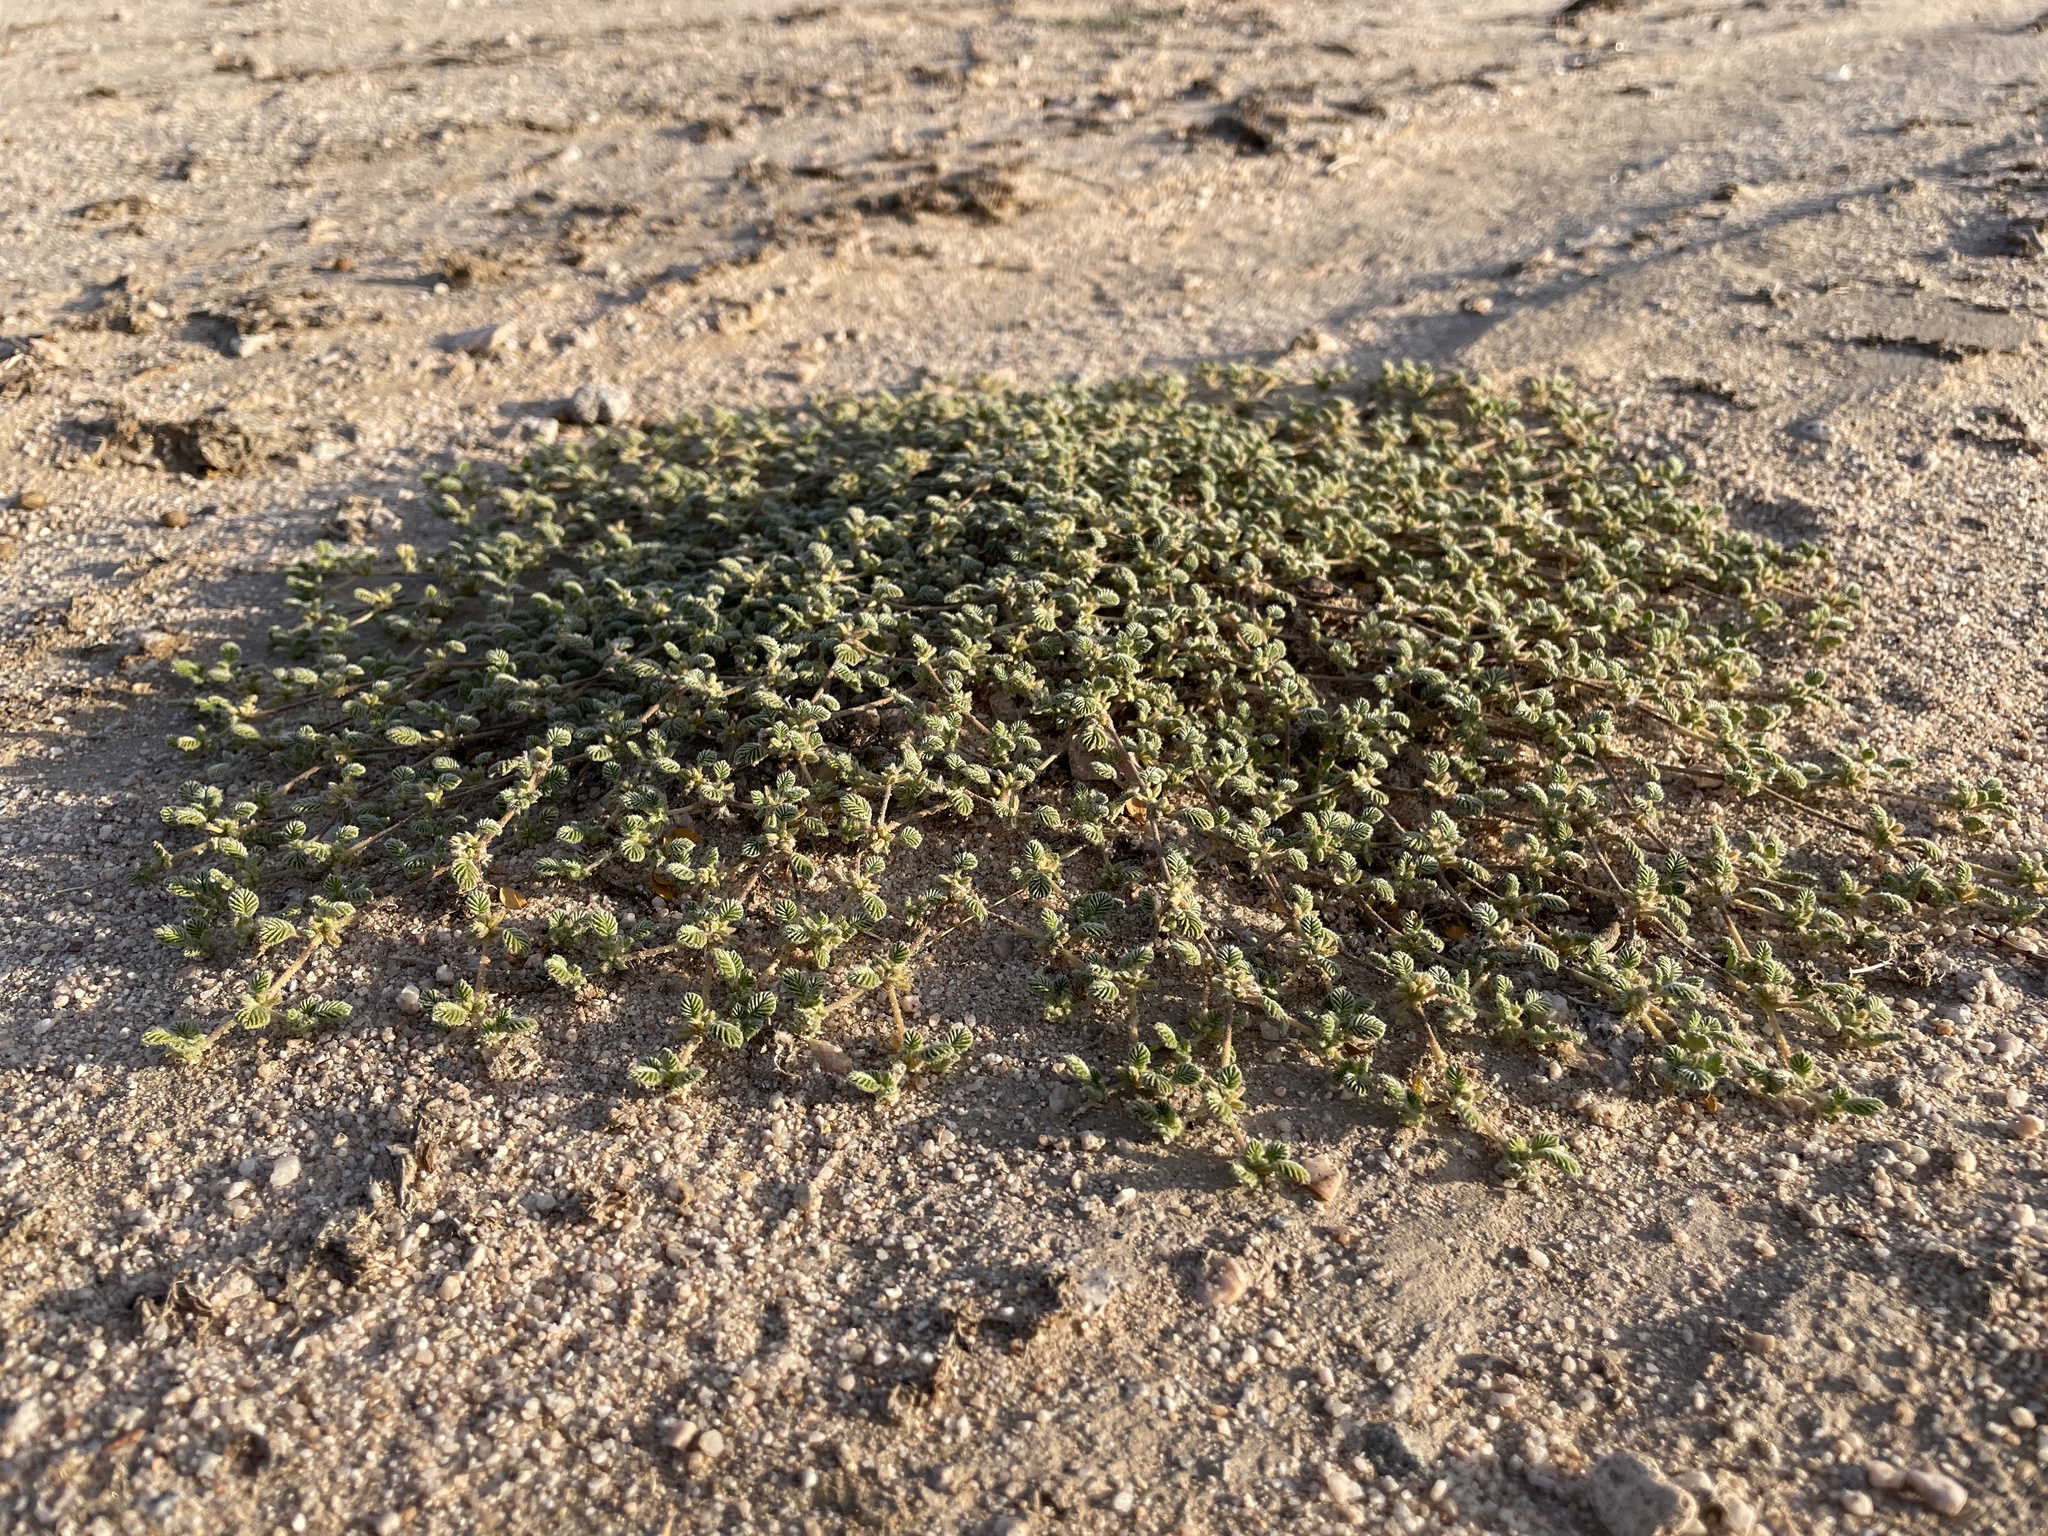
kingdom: Plantae
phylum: Tracheophyta
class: Magnoliopsida
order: Boraginales
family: Ehretiaceae
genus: Tiquilia
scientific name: Tiquilia plicata
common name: Fan-leaf tiquilia
